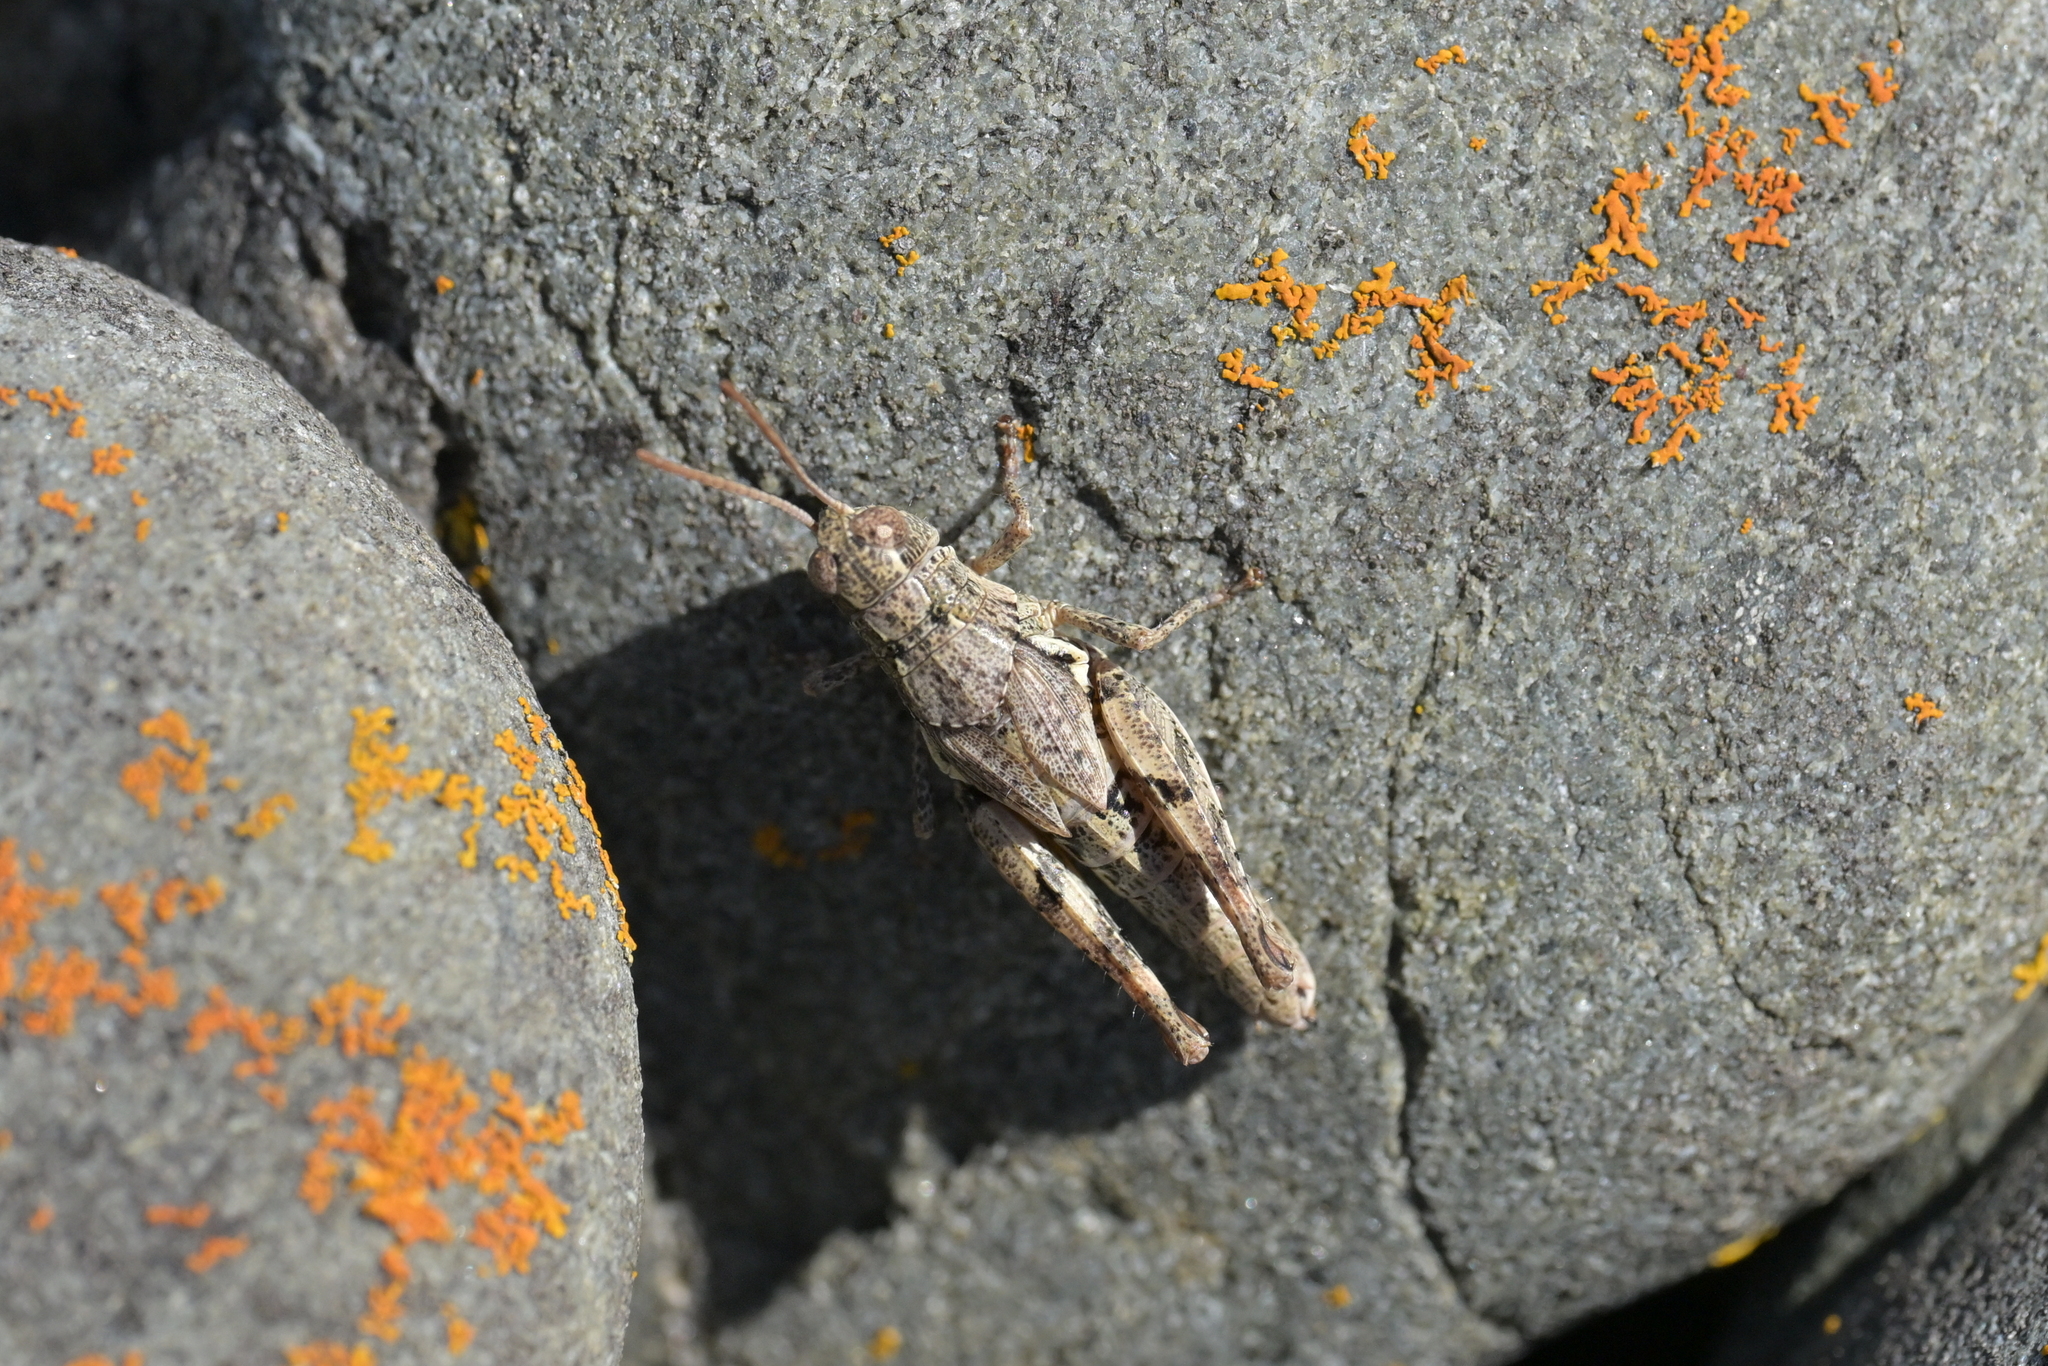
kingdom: Animalia
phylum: Arthropoda
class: Insecta
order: Orthoptera
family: Acrididae
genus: Phaulacridium
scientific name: Phaulacridium marginale
